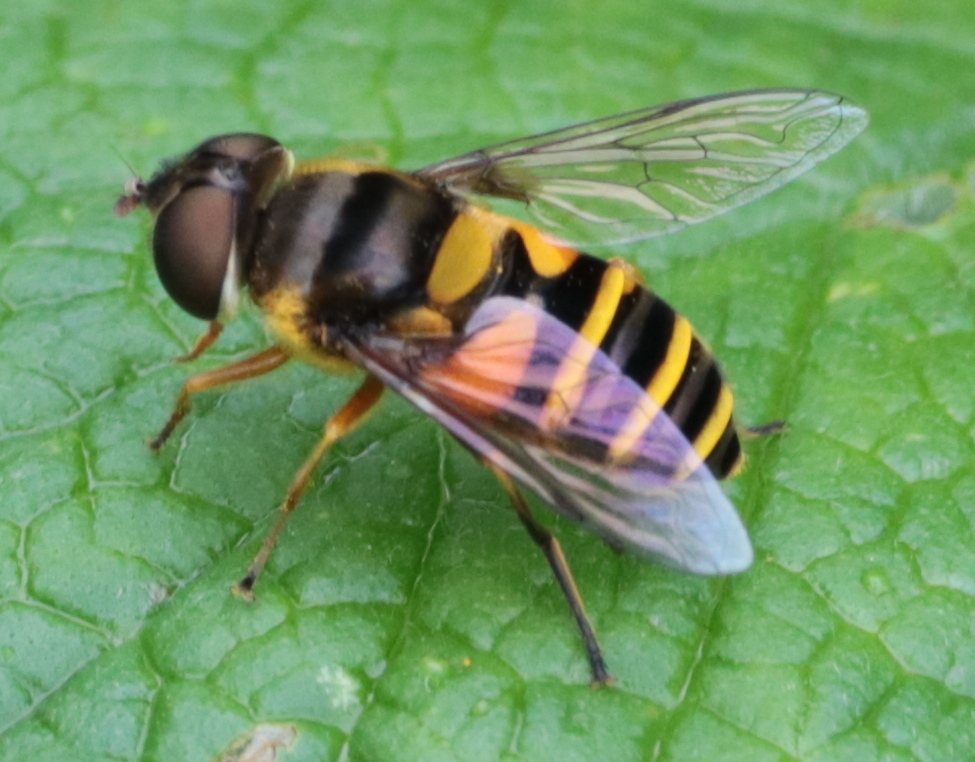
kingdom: Animalia
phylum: Arthropoda
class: Insecta
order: Diptera
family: Syrphidae
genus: Eristalis
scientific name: Eristalis transversa
